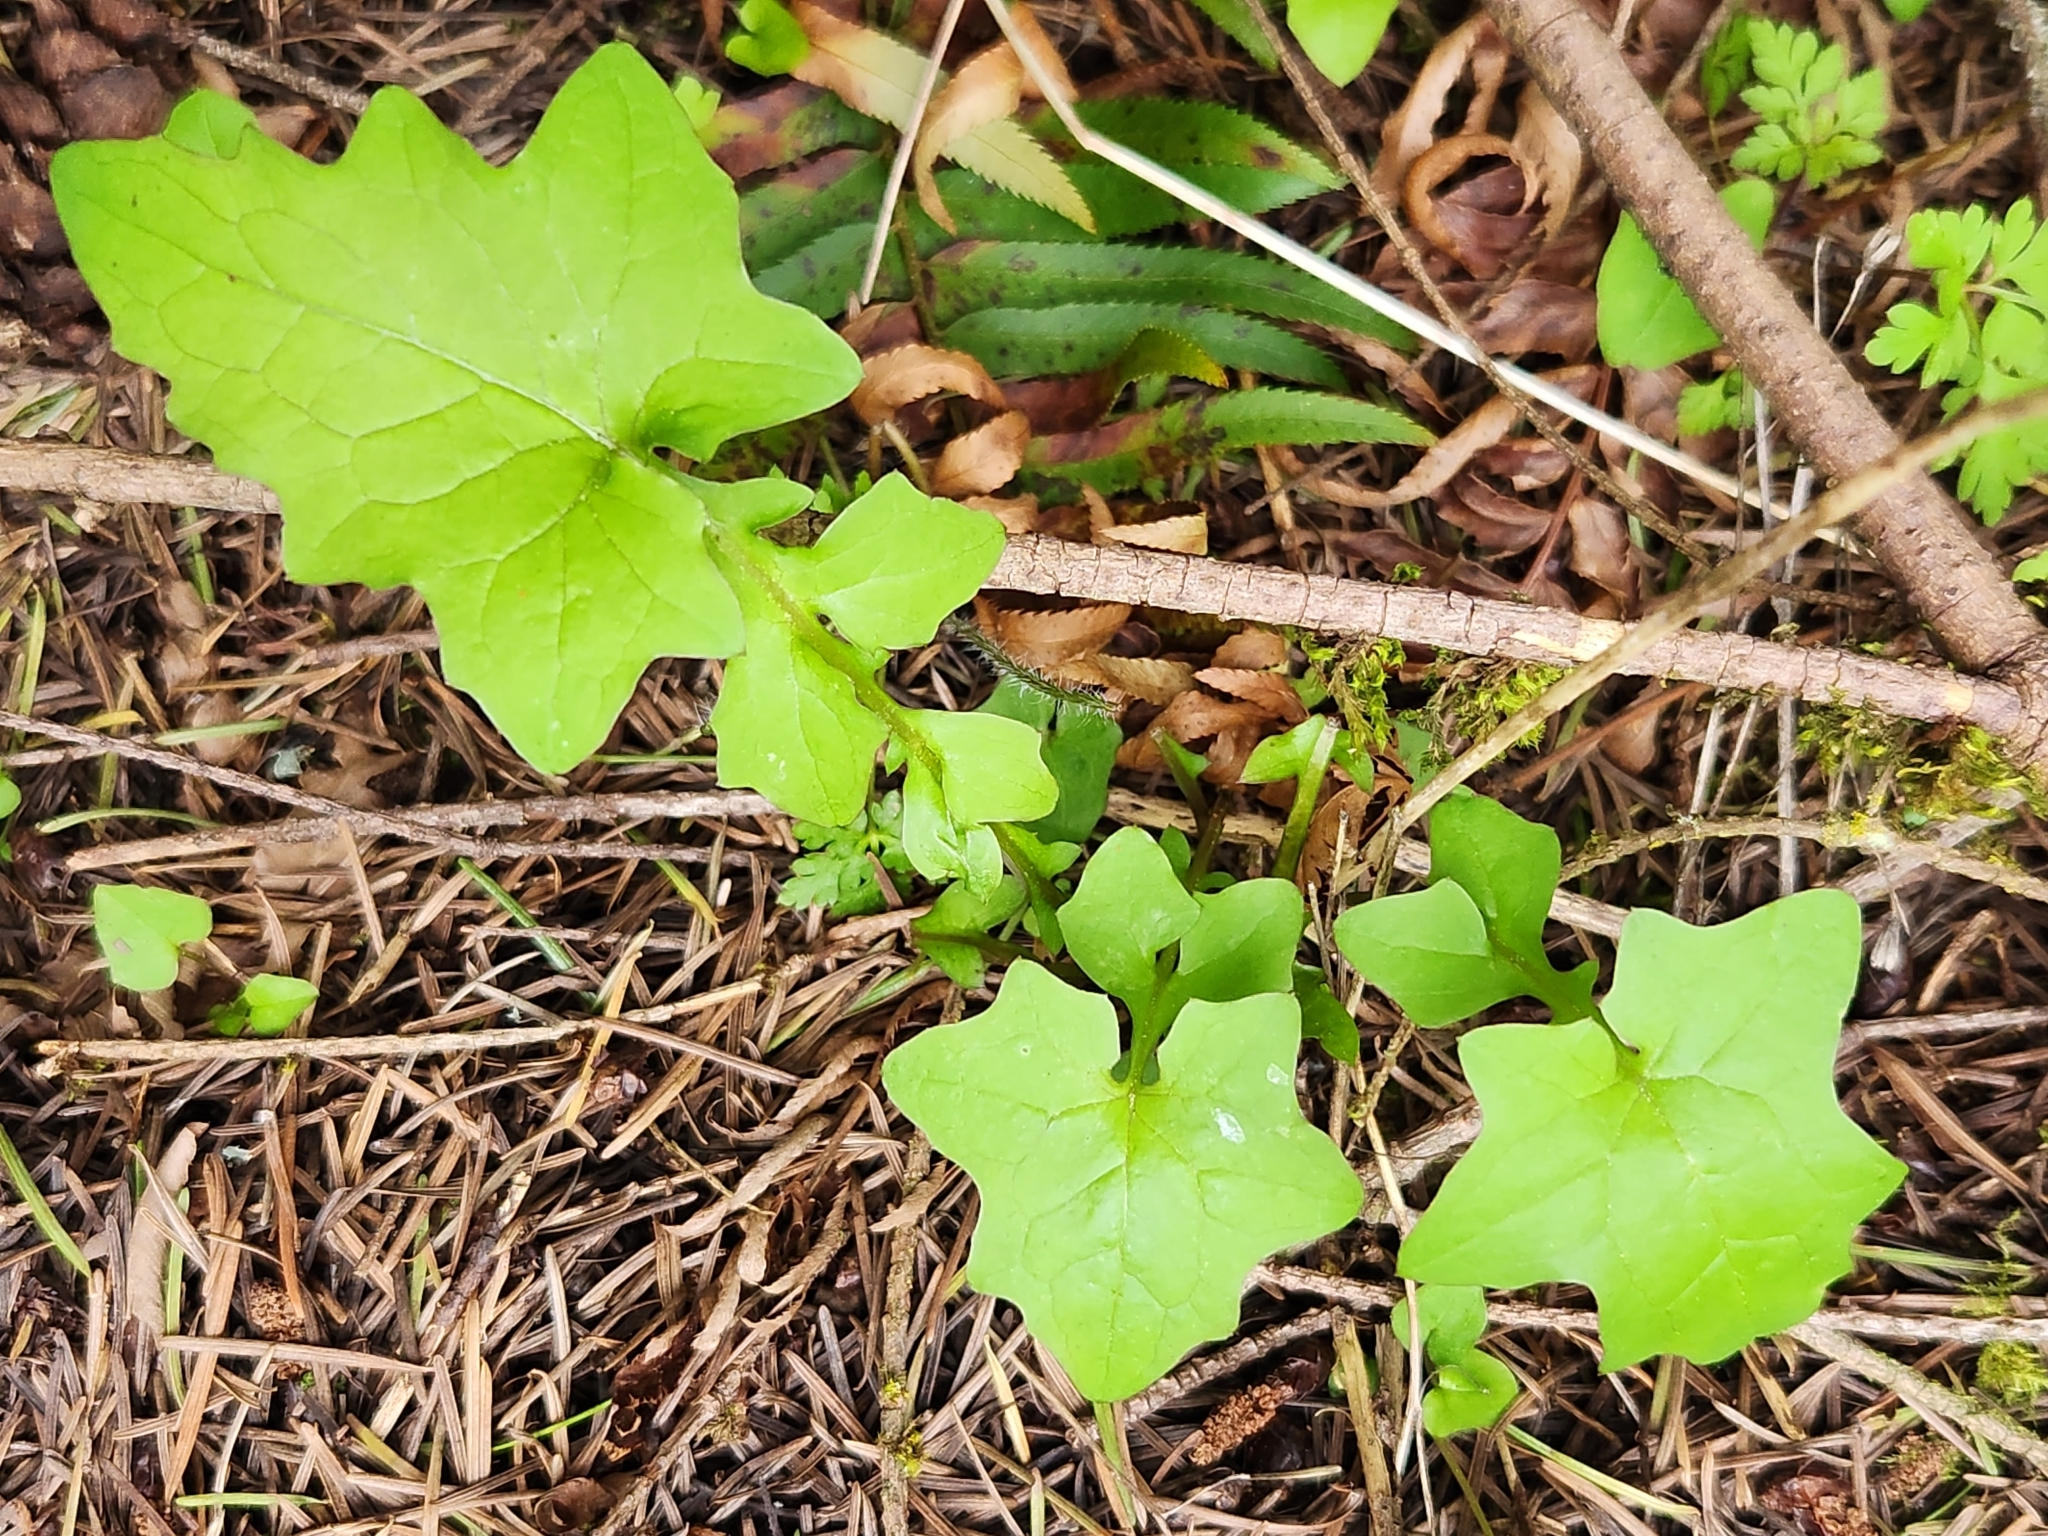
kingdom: Plantae
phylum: Tracheophyta
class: Magnoliopsida
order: Asterales
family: Asteraceae
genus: Mycelis
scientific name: Mycelis muralis
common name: Wall lettuce
